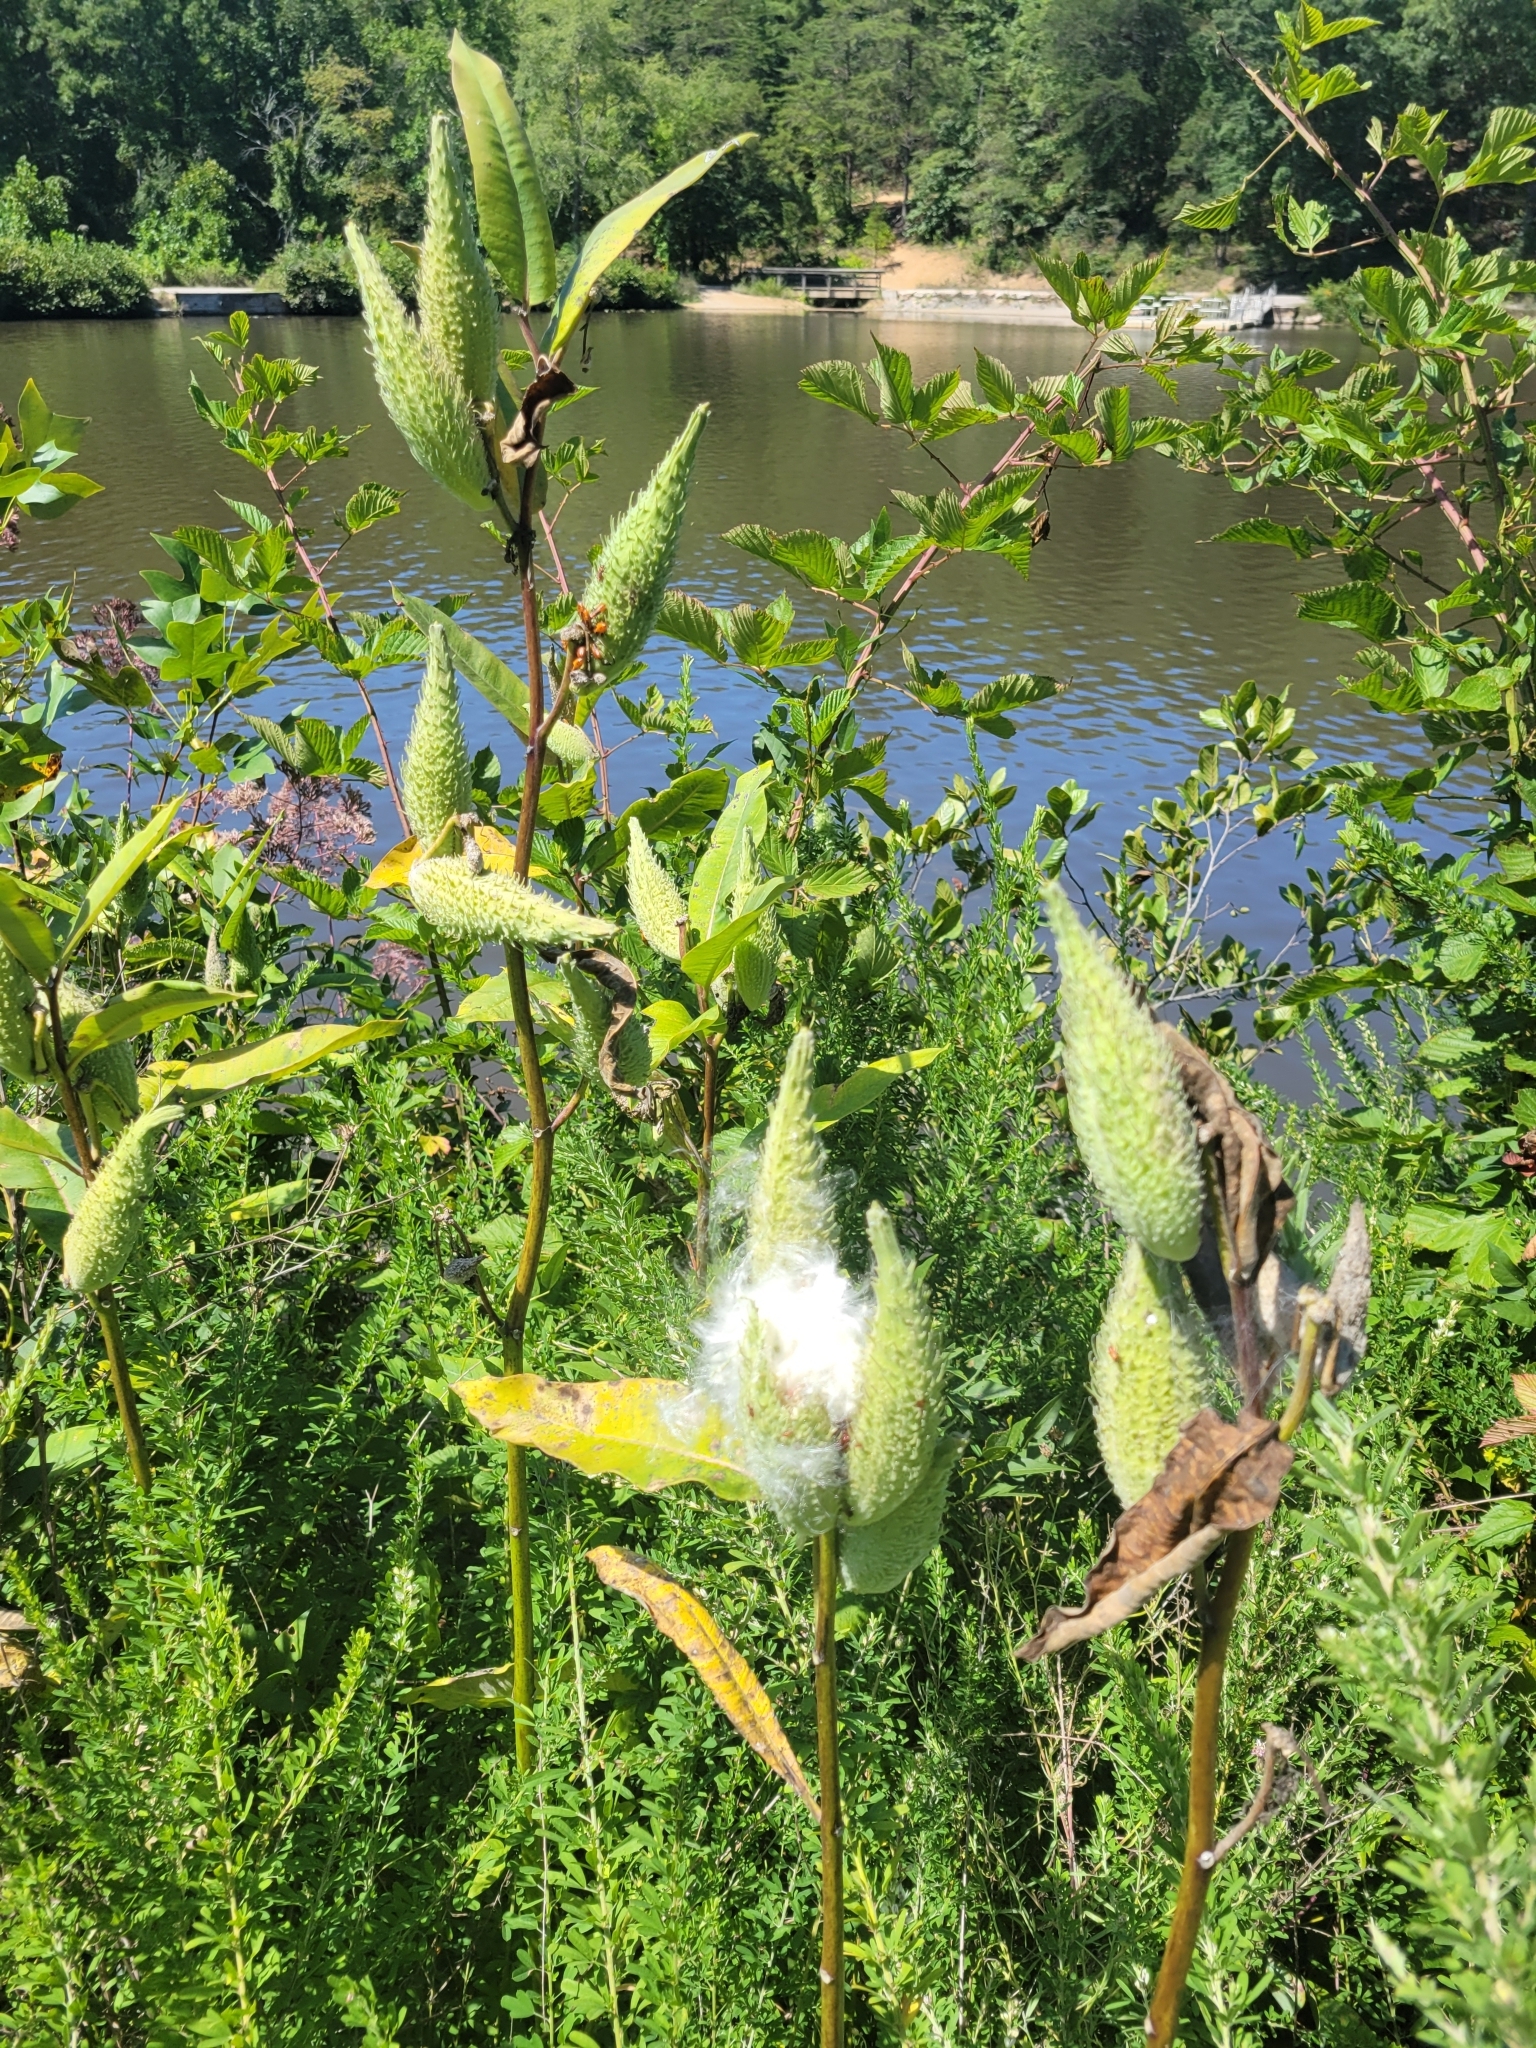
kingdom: Plantae
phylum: Tracheophyta
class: Magnoliopsida
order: Gentianales
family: Apocynaceae
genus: Asclepias
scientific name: Asclepias syriaca
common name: Common milkweed
